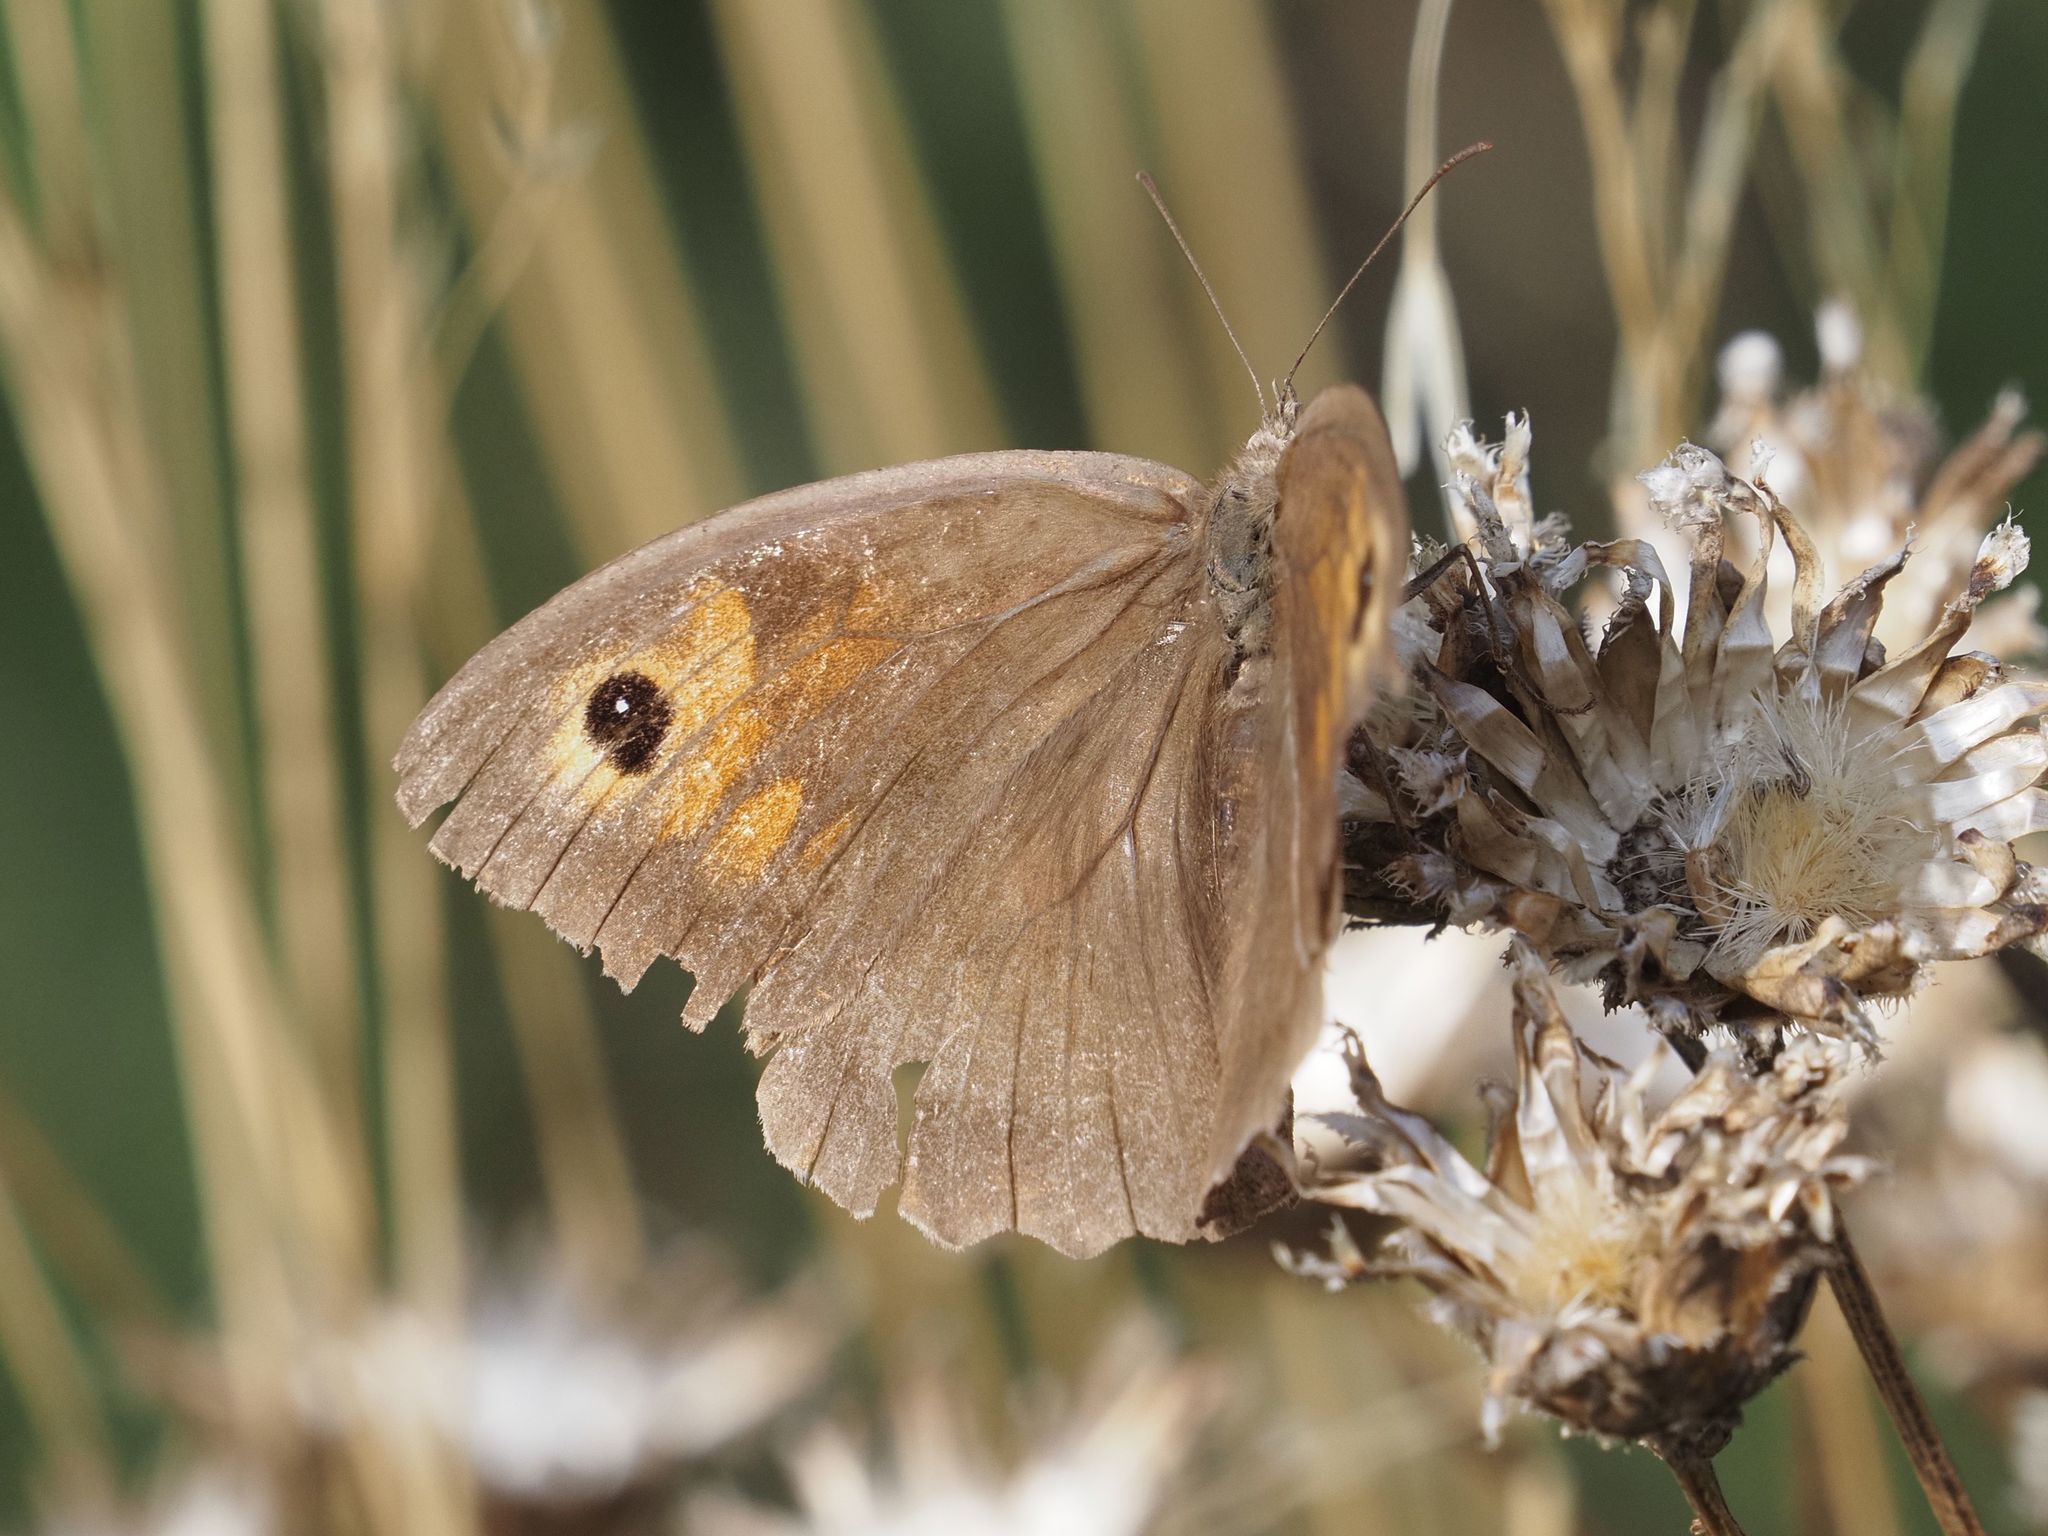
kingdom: Animalia
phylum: Arthropoda
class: Insecta
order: Lepidoptera
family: Nymphalidae
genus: Maniola
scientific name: Maniola jurtina
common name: Meadow brown
